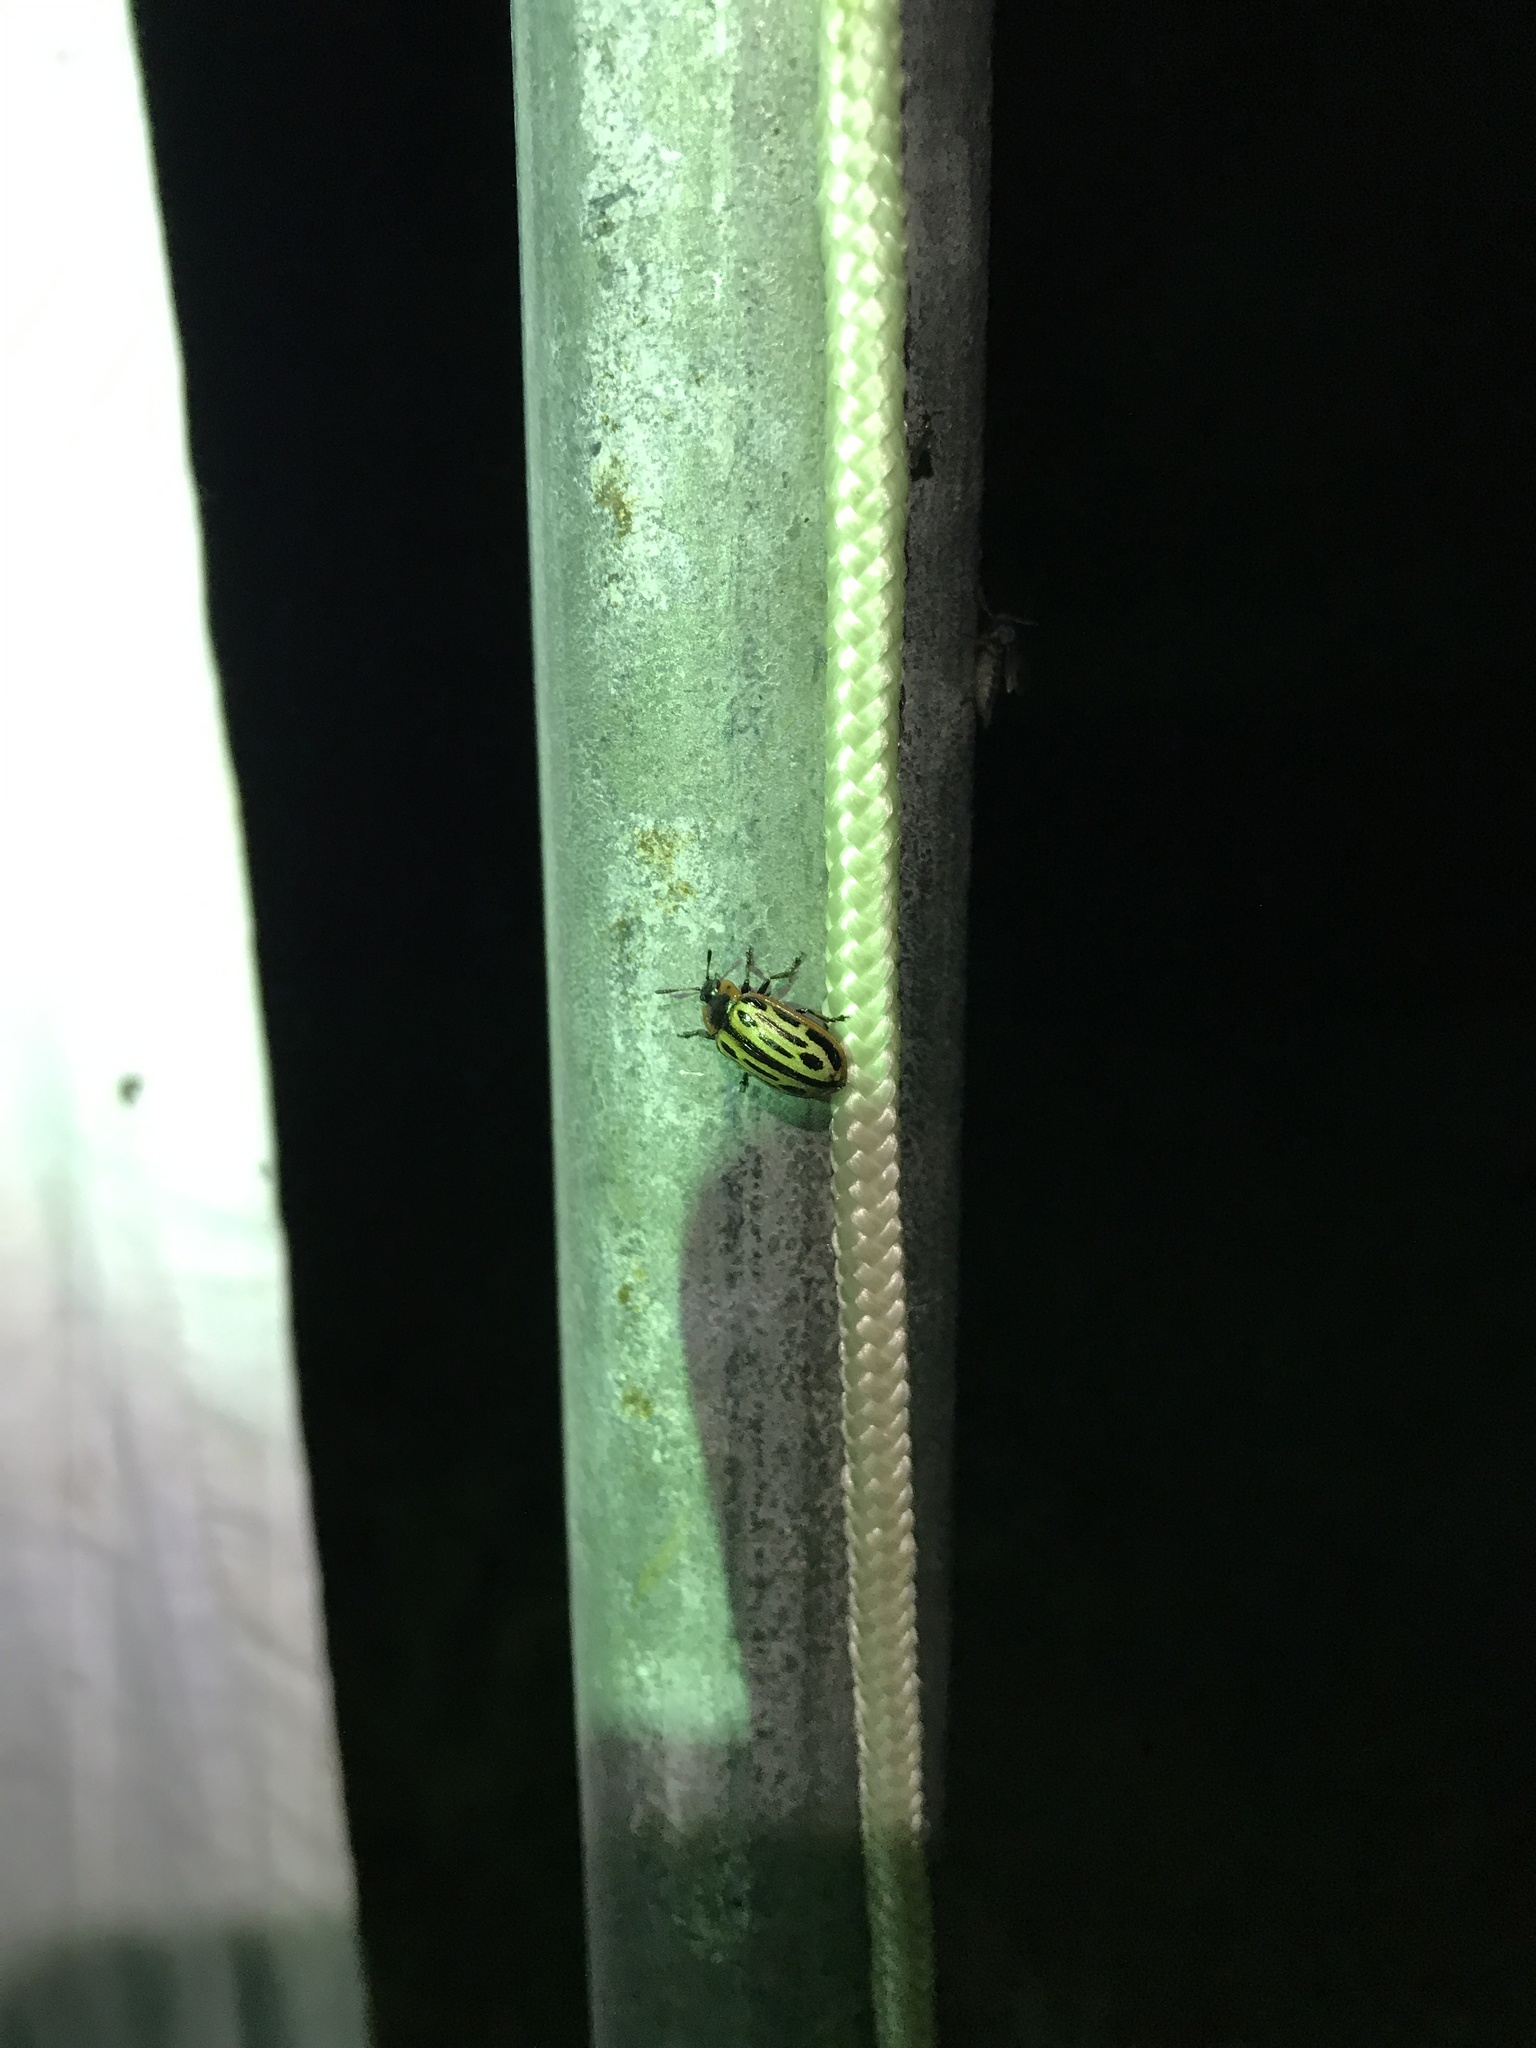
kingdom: Animalia
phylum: Arthropoda
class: Insecta
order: Coleoptera
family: Chrysomelidae
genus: Aethiopocassis
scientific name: Aethiopocassis scripta
